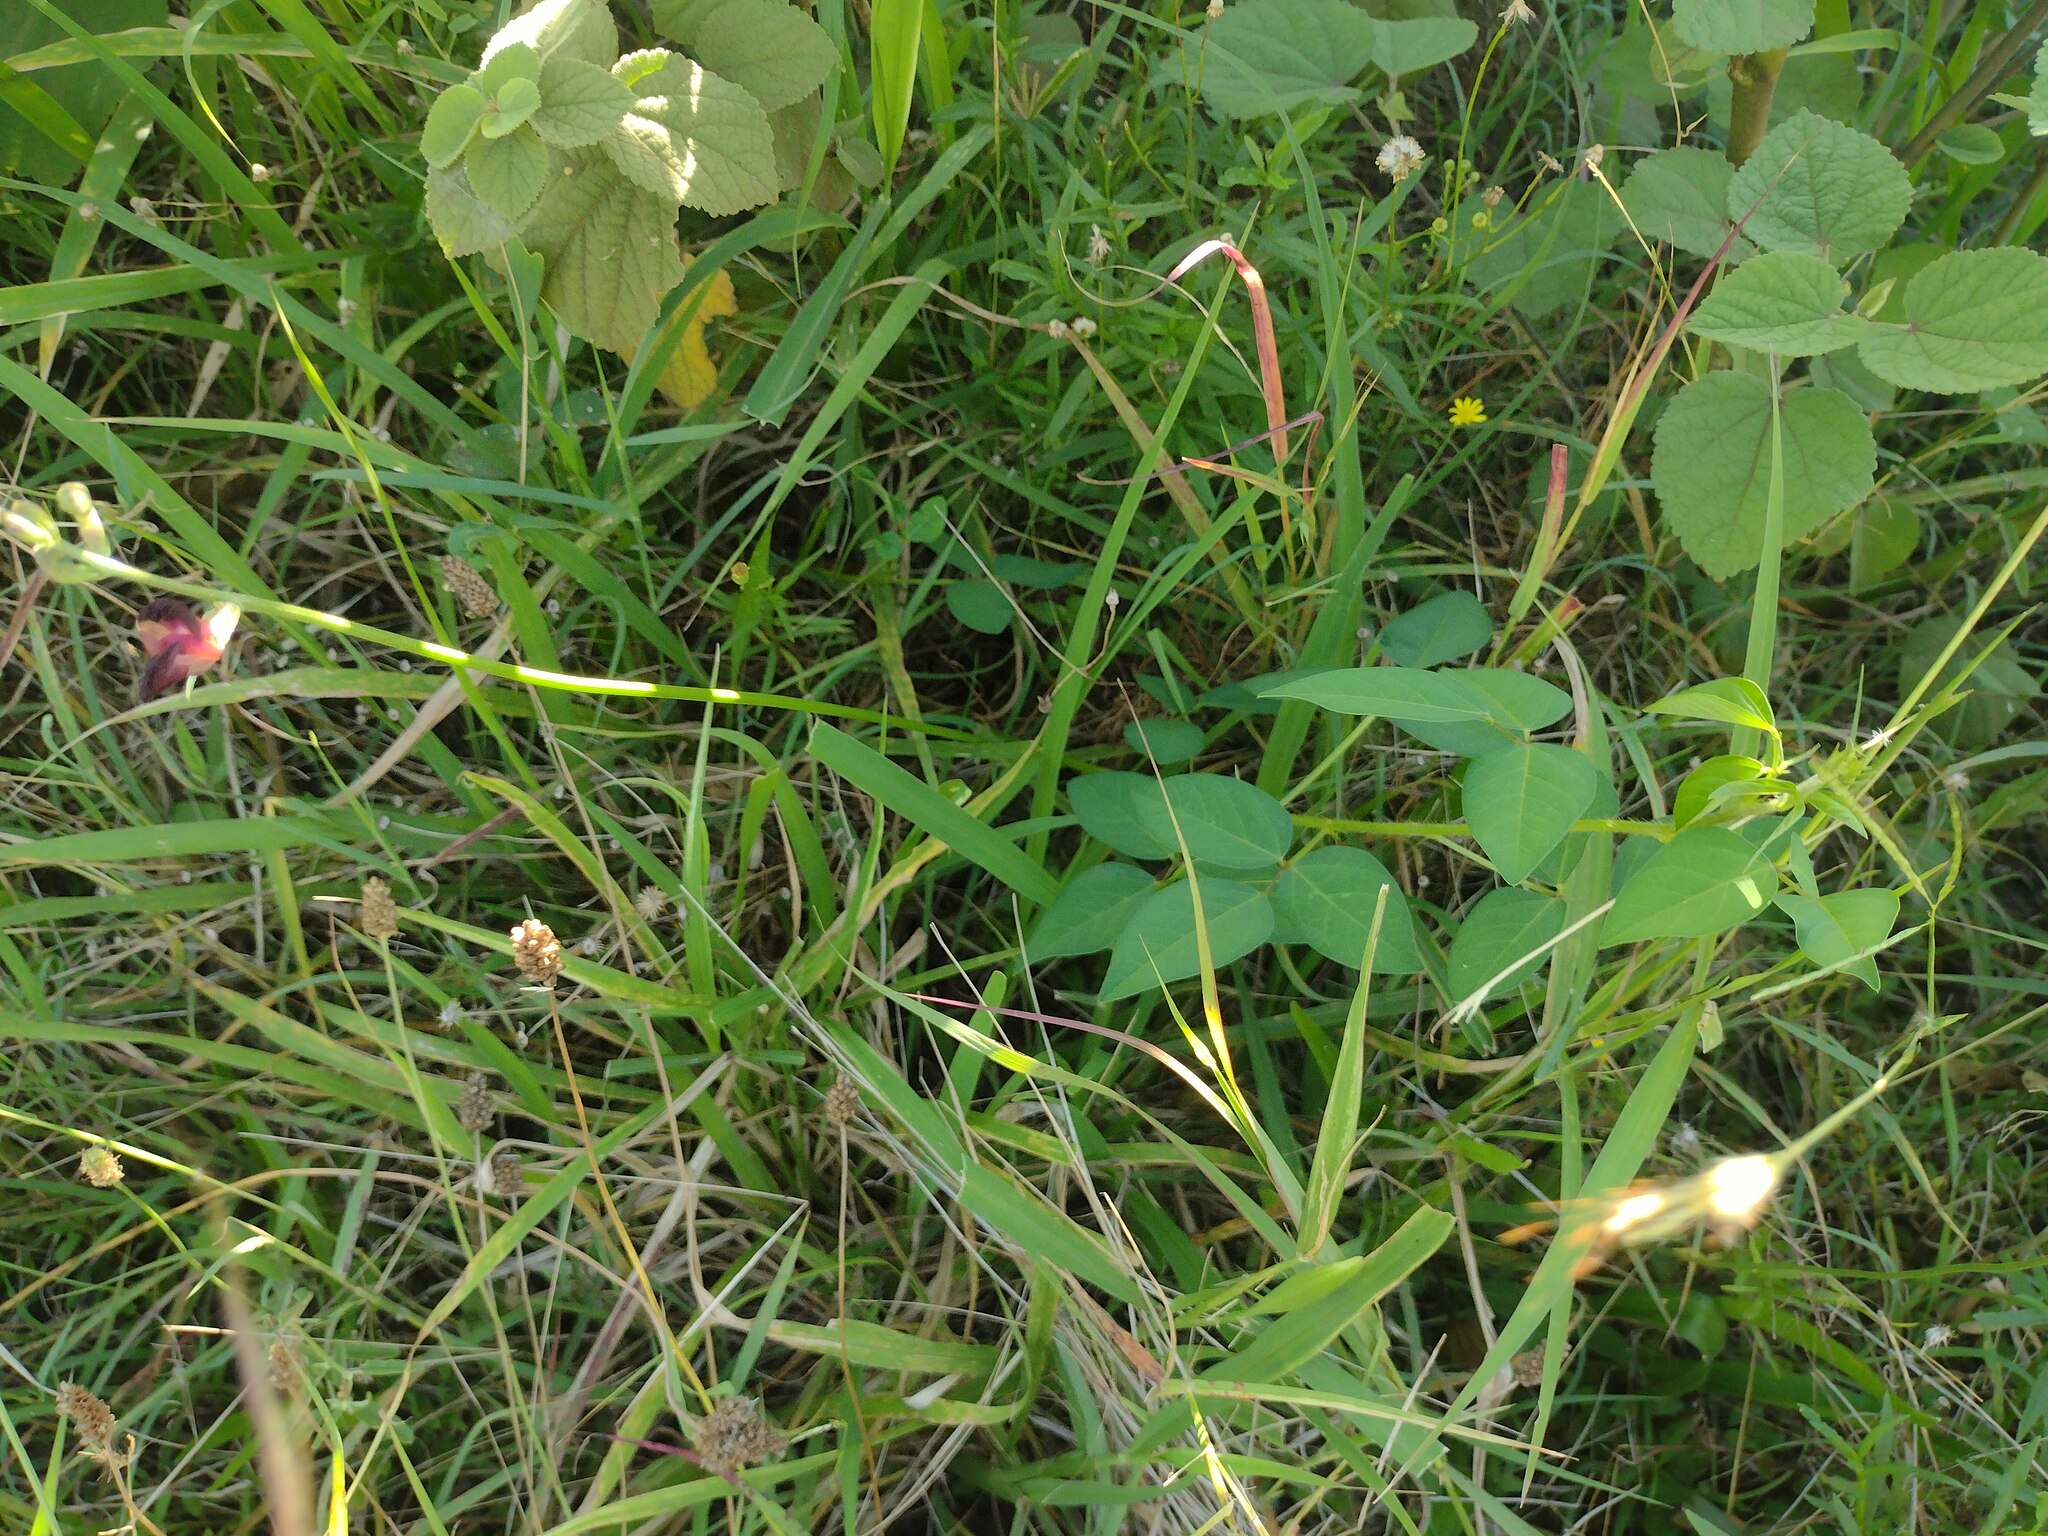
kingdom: Plantae
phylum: Tracheophyta
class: Magnoliopsida
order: Fabales
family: Fabaceae
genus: Macroptilium
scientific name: Macroptilium lathyroides
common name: Wild bushbean
